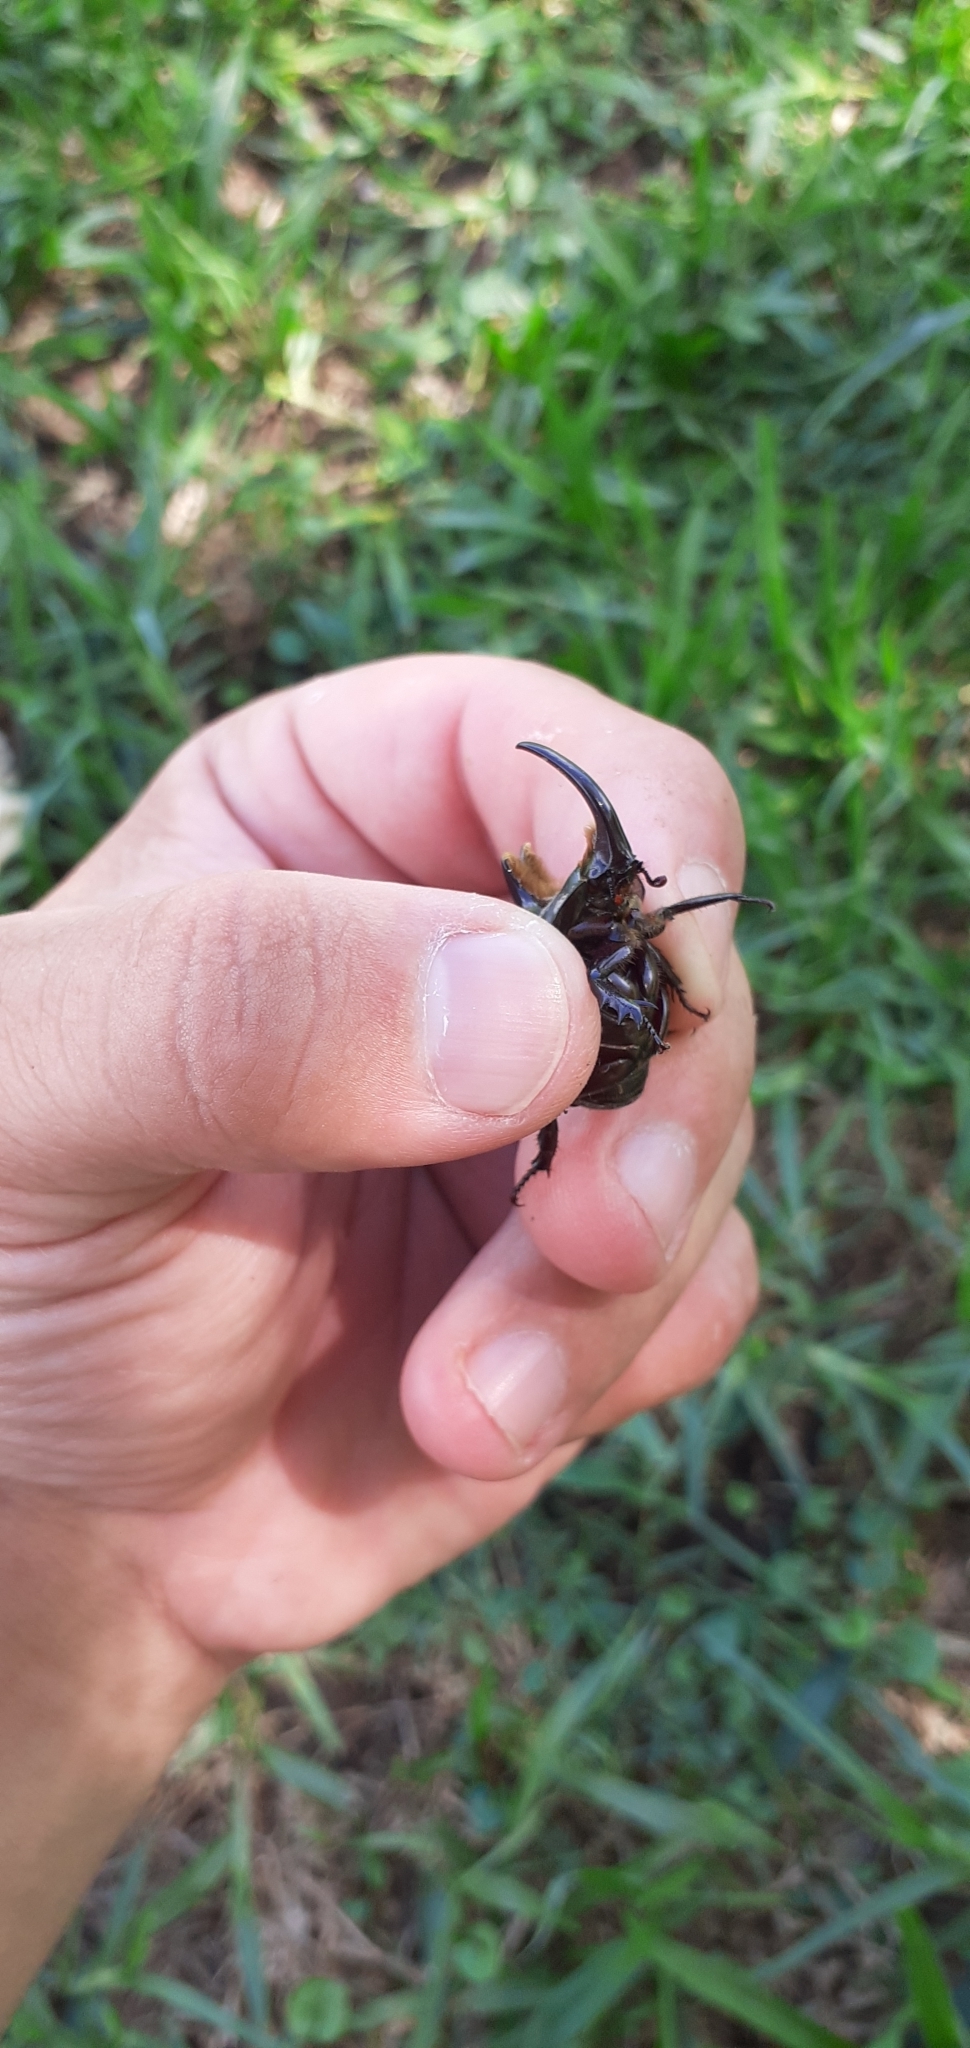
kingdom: Animalia
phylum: Arthropoda
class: Insecta
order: Coleoptera
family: Scarabaeidae
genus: Diloboderus
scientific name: Diloboderus abderus
